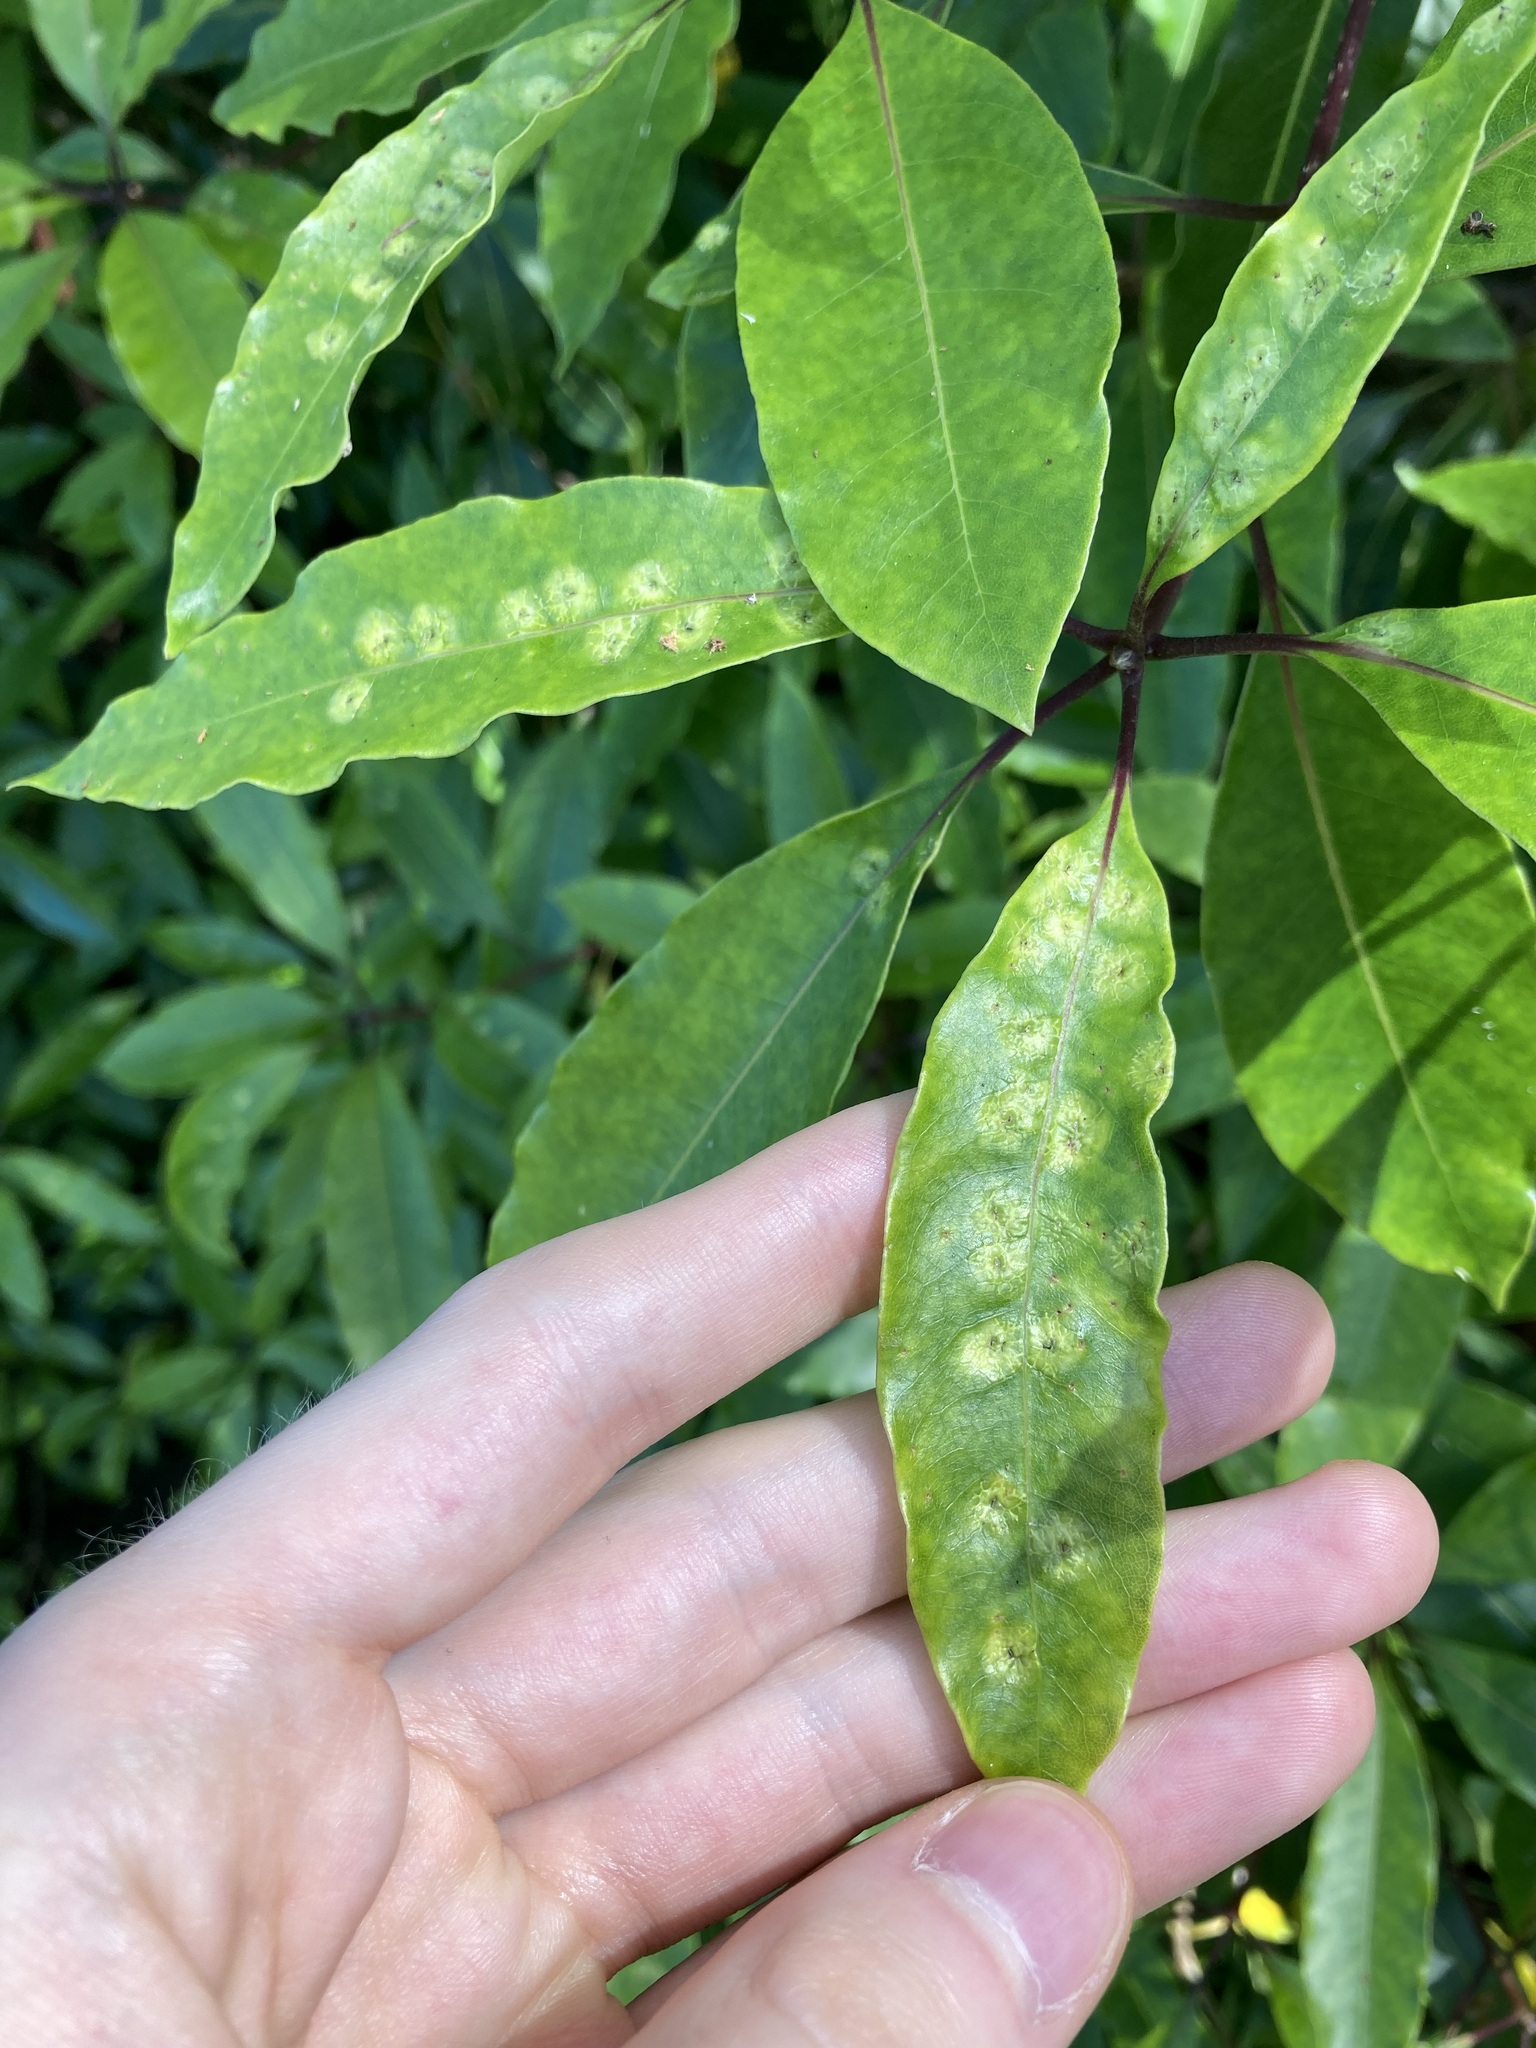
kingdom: Animalia
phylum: Arthropoda
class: Insecta
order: Diptera
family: Agromyzidae
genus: Phytoliriomyza
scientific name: Phytoliriomyza pittosporophylli
